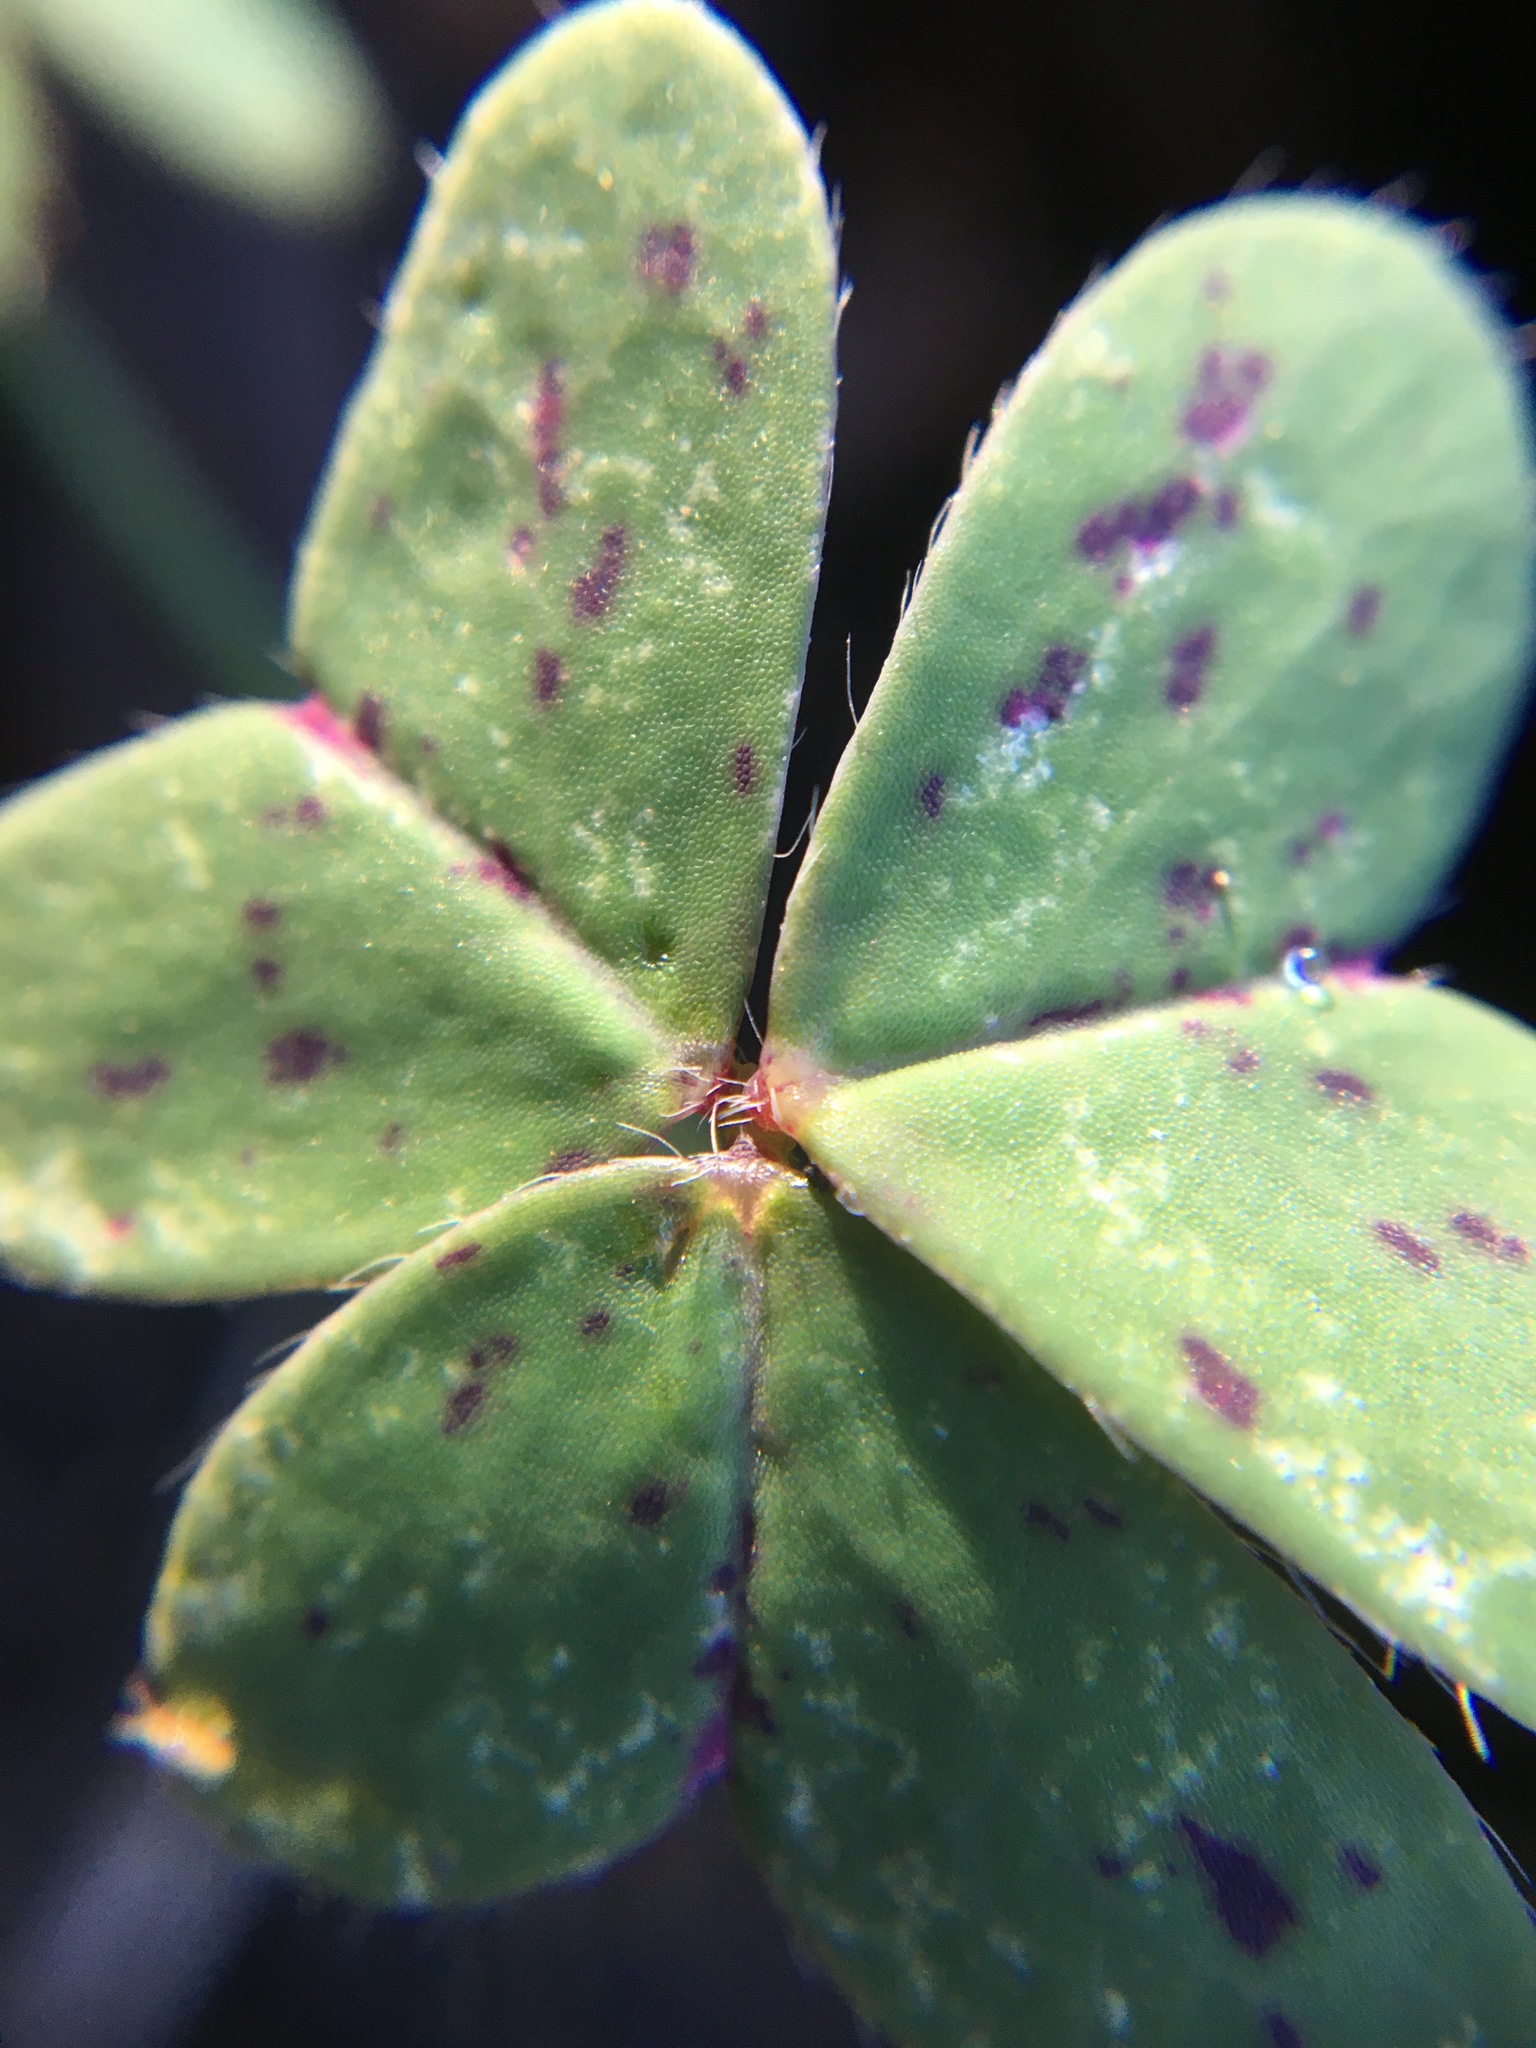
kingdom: Plantae
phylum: Tracheophyta
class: Magnoliopsida
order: Oxalidales
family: Oxalidaceae
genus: Oxalis
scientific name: Oxalis pes-caprae
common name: Bermuda-buttercup
